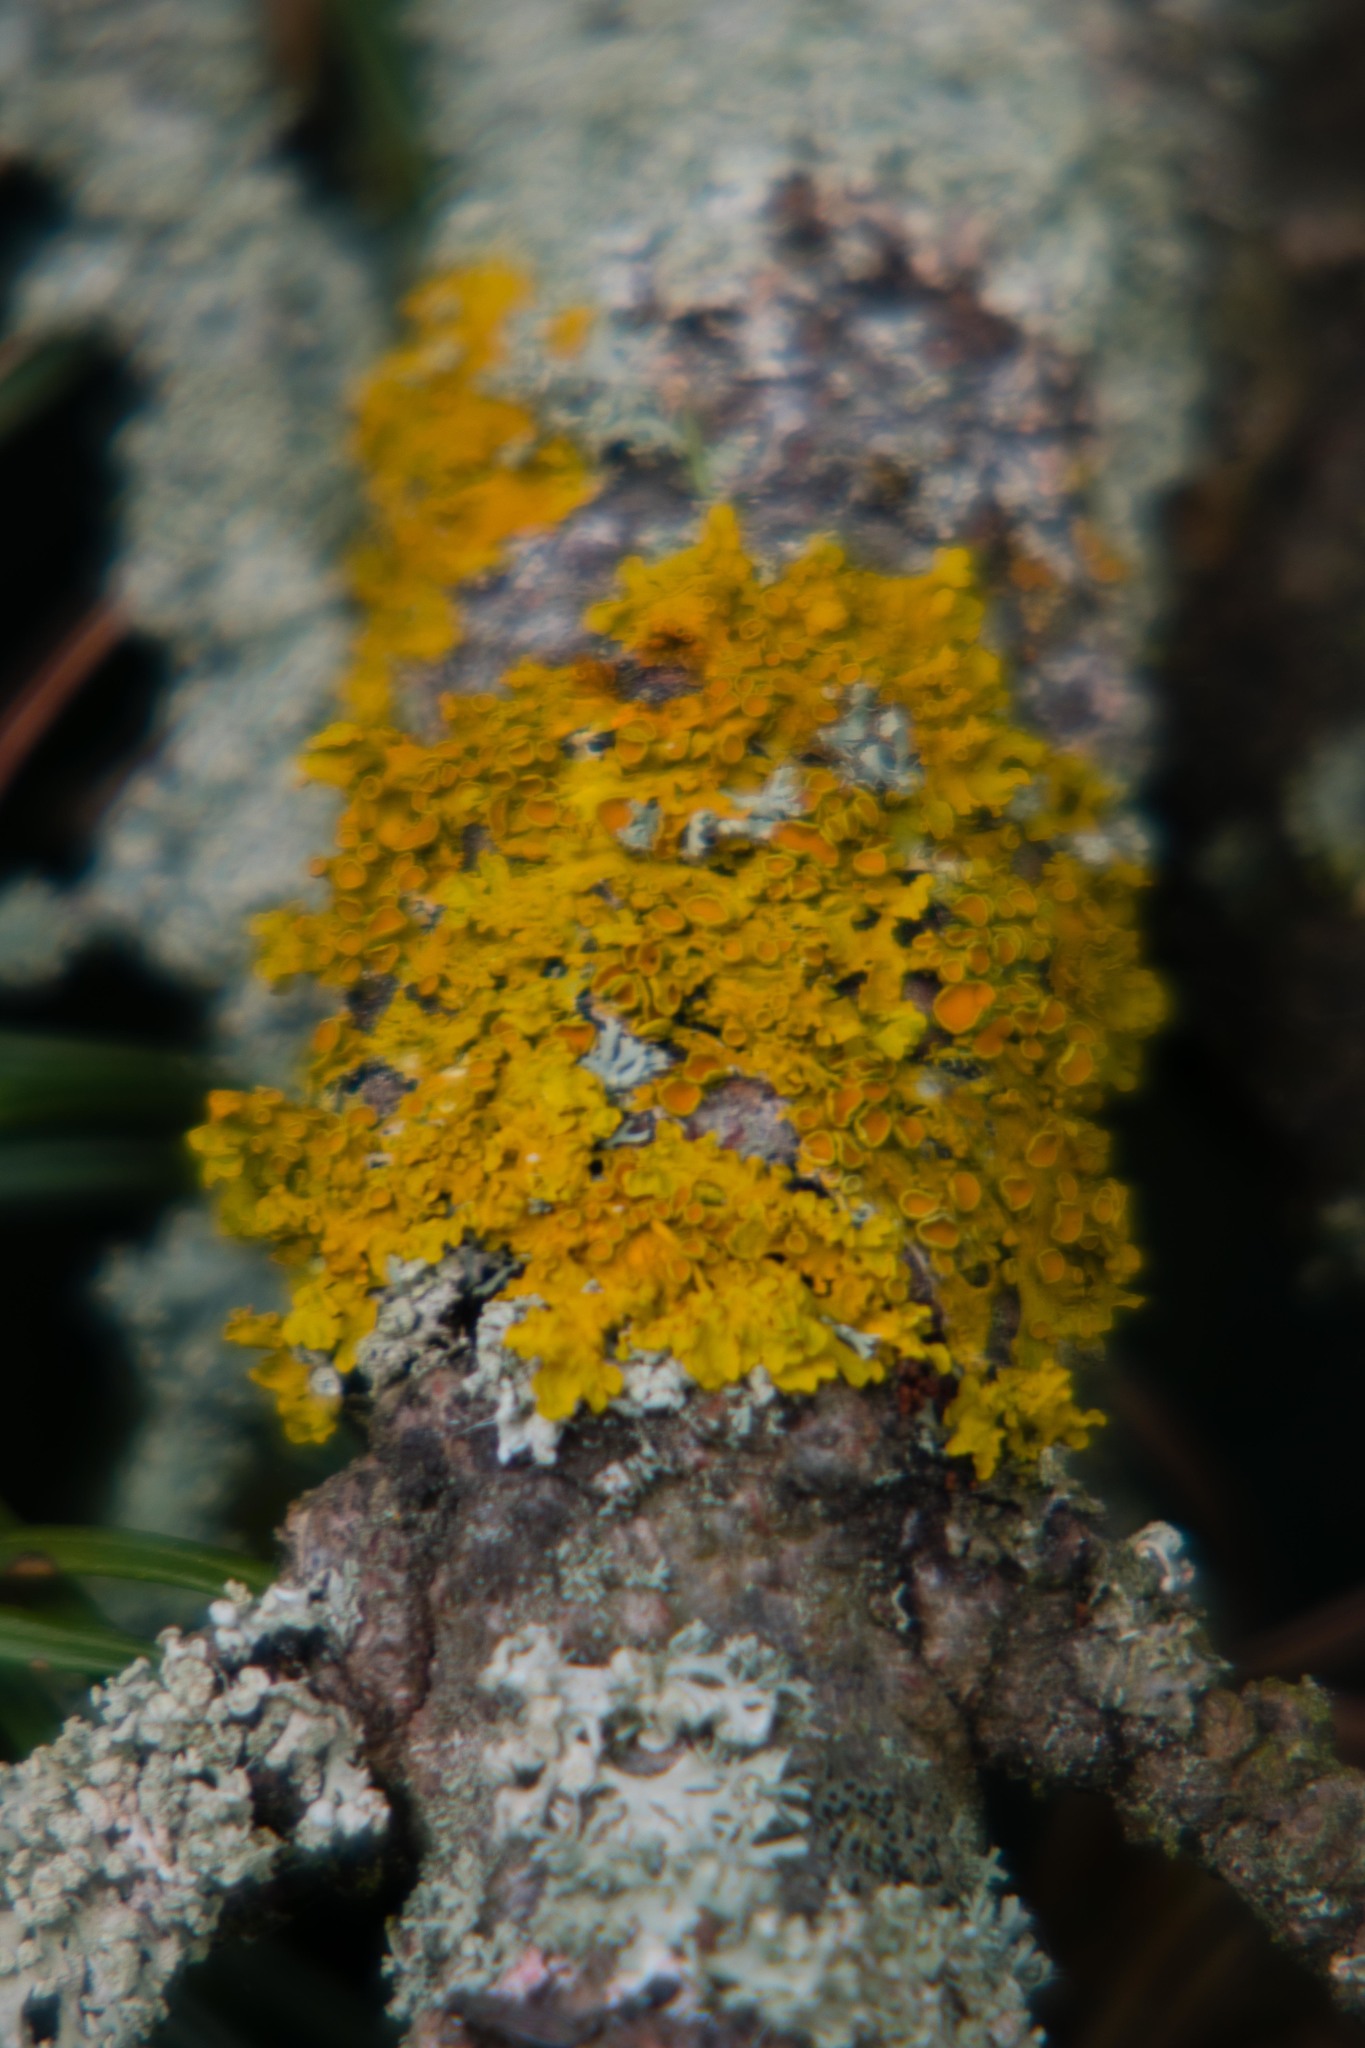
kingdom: Fungi
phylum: Ascomycota
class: Lecanoromycetes
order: Teloschistales
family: Teloschistaceae
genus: Xanthoria
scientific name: Xanthoria parietina
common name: Common orange lichen
